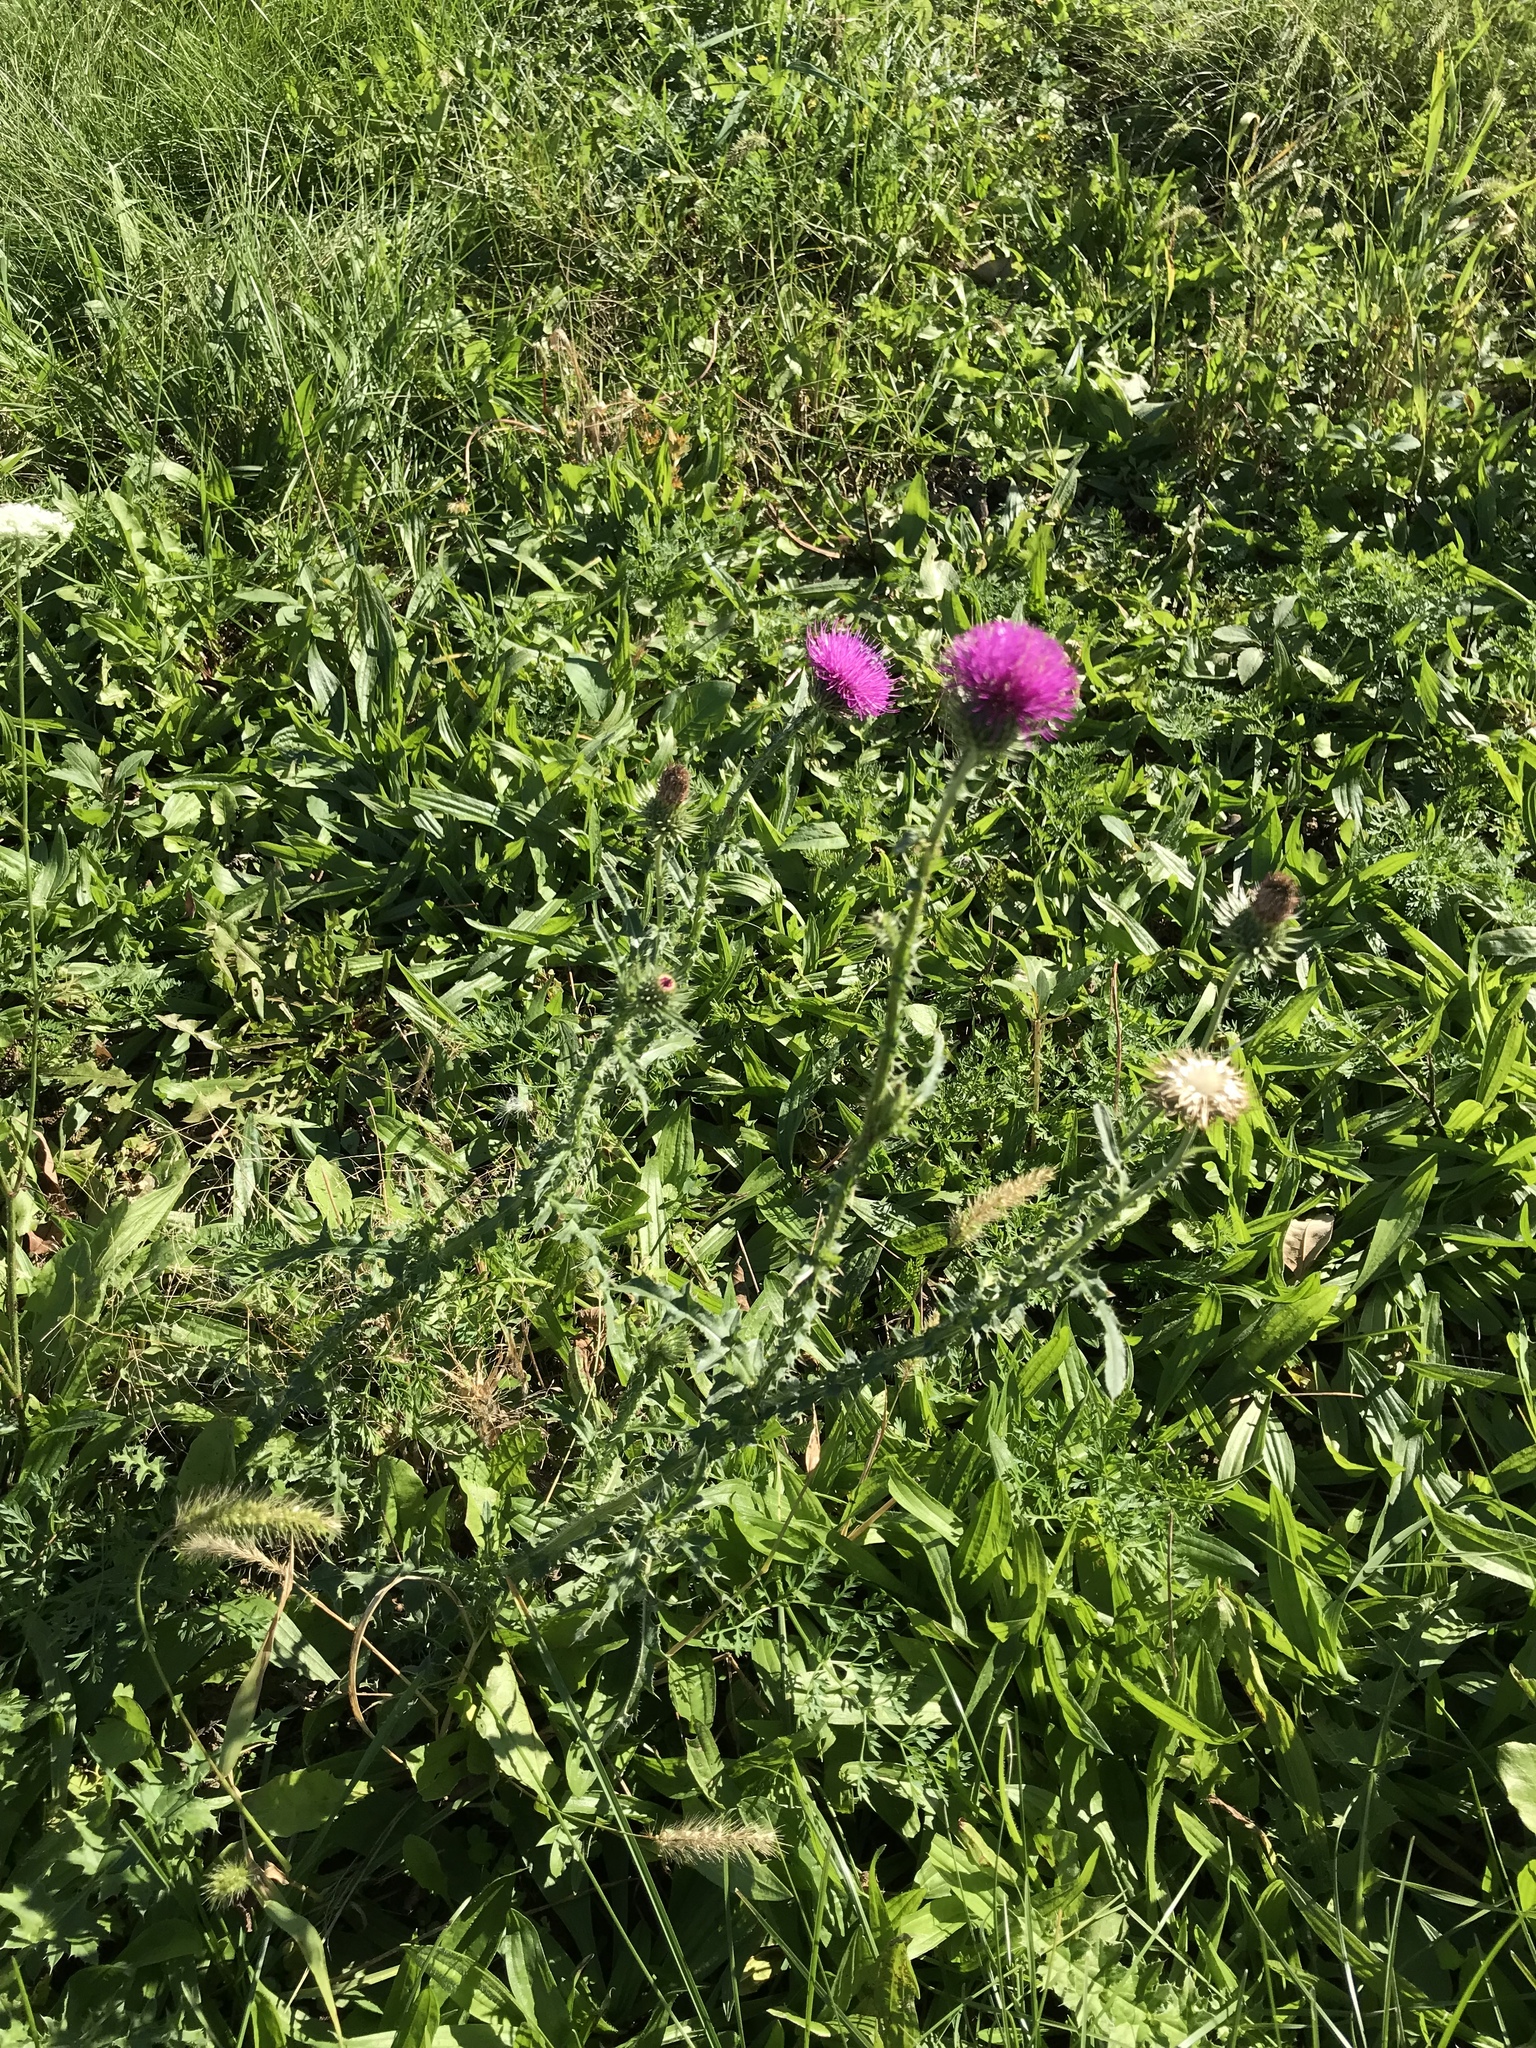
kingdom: Plantae
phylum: Tracheophyta
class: Magnoliopsida
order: Asterales
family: Asteraceae
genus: Carduus
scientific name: Carduus acanthoides
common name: Plumeless thistle
